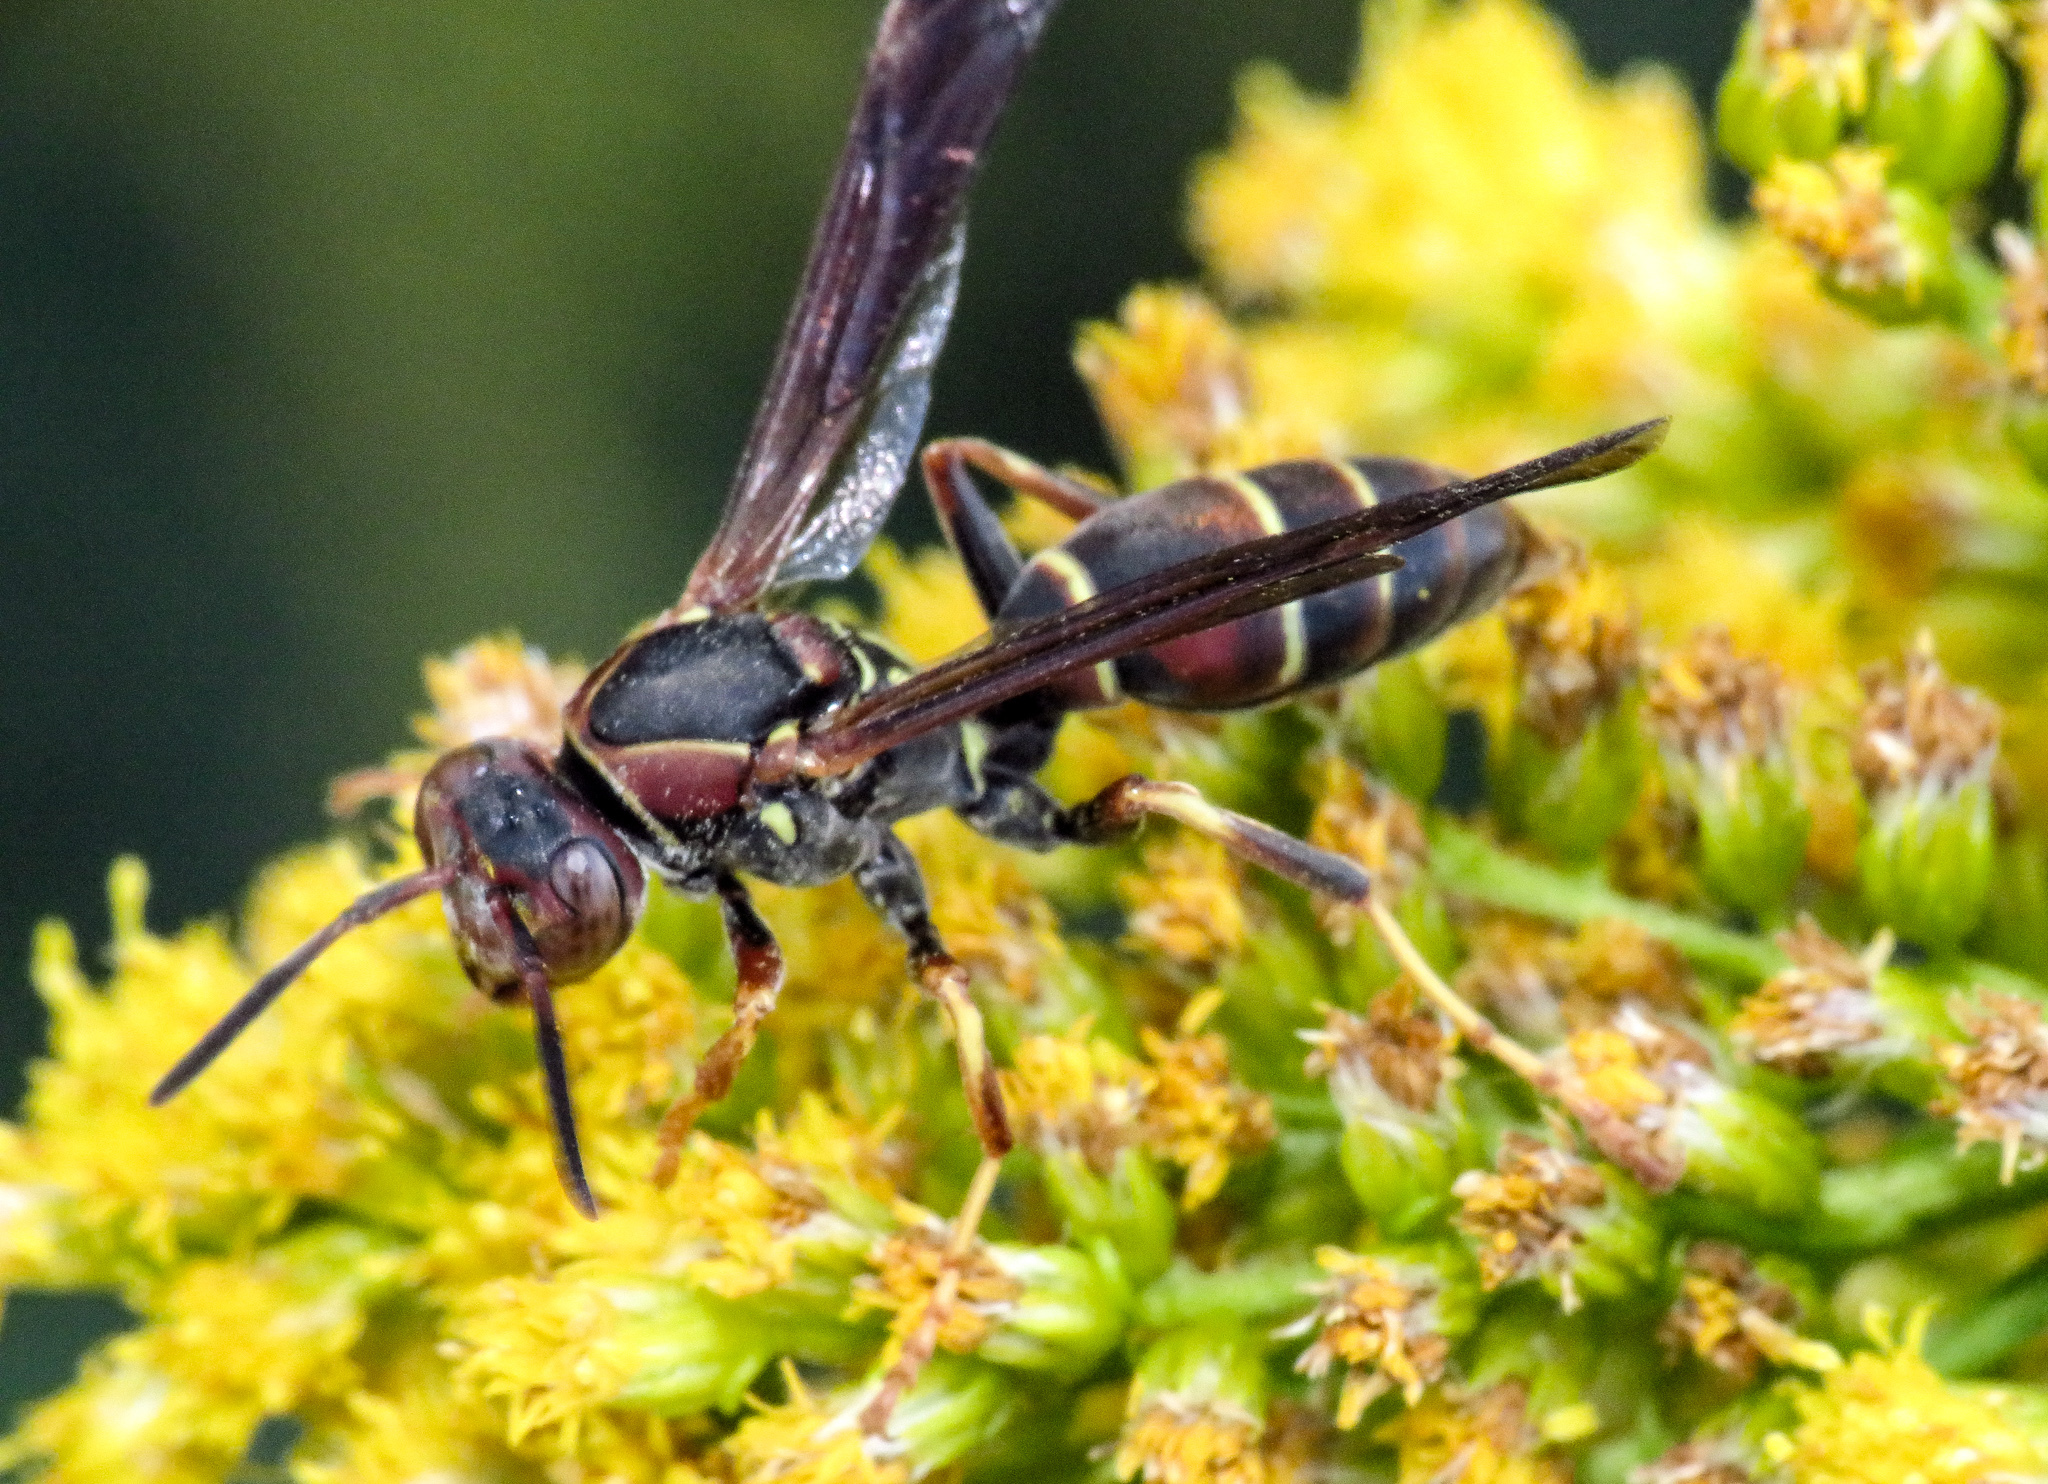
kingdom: Animalia
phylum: Arthropoda
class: Insecta
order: Hymenoptera
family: Eumenidae
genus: Polistes
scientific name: Polistes fuscatus
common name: Dark paper wasp
